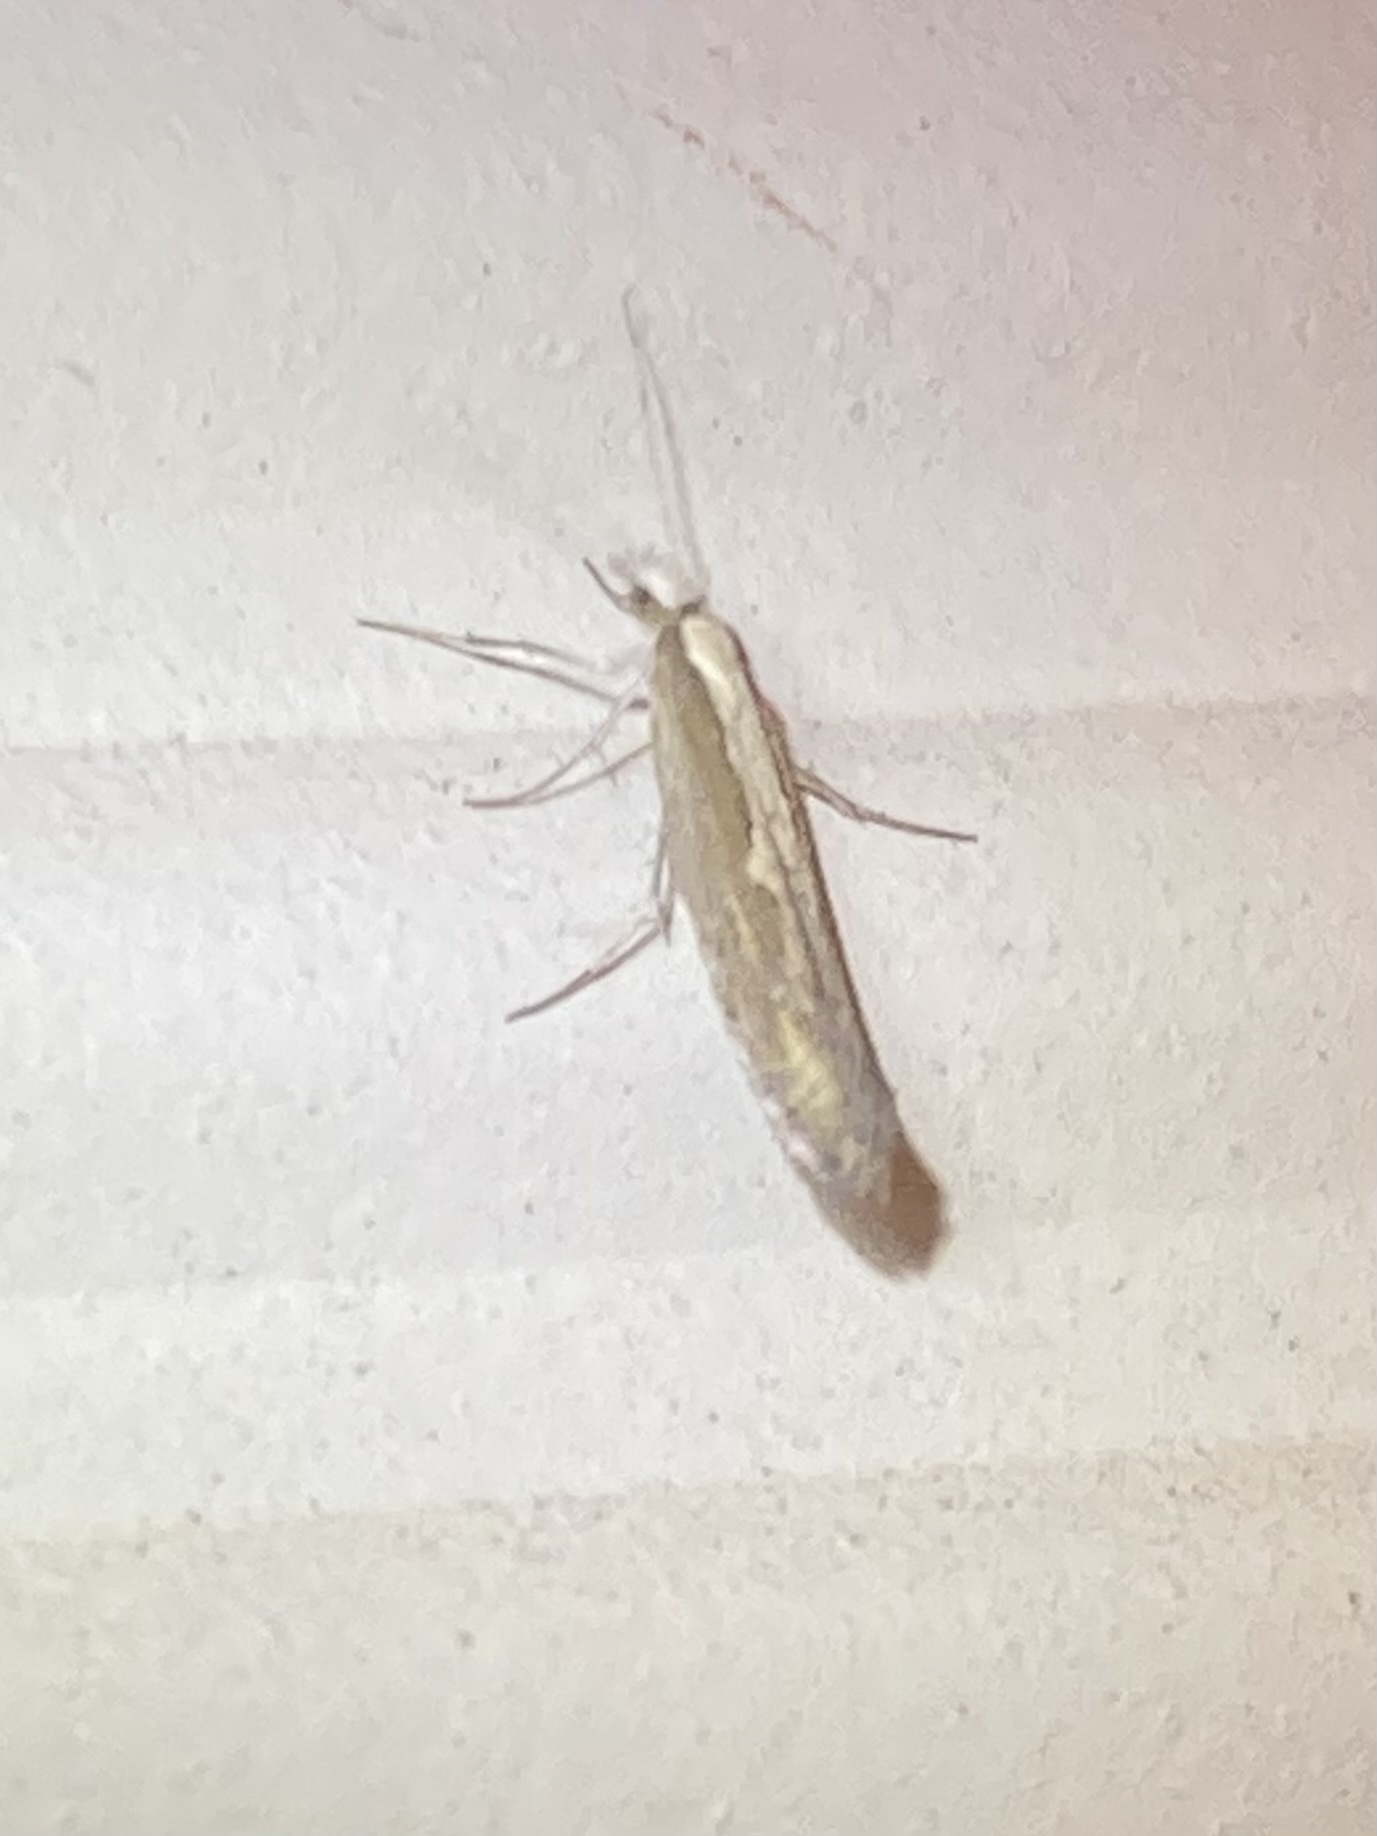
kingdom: Animalia
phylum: Arthropoda
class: Insecta
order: Lepidoptera
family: Plutellidae
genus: Plutella
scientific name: Plutella xylostella
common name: Diamond-back moth
